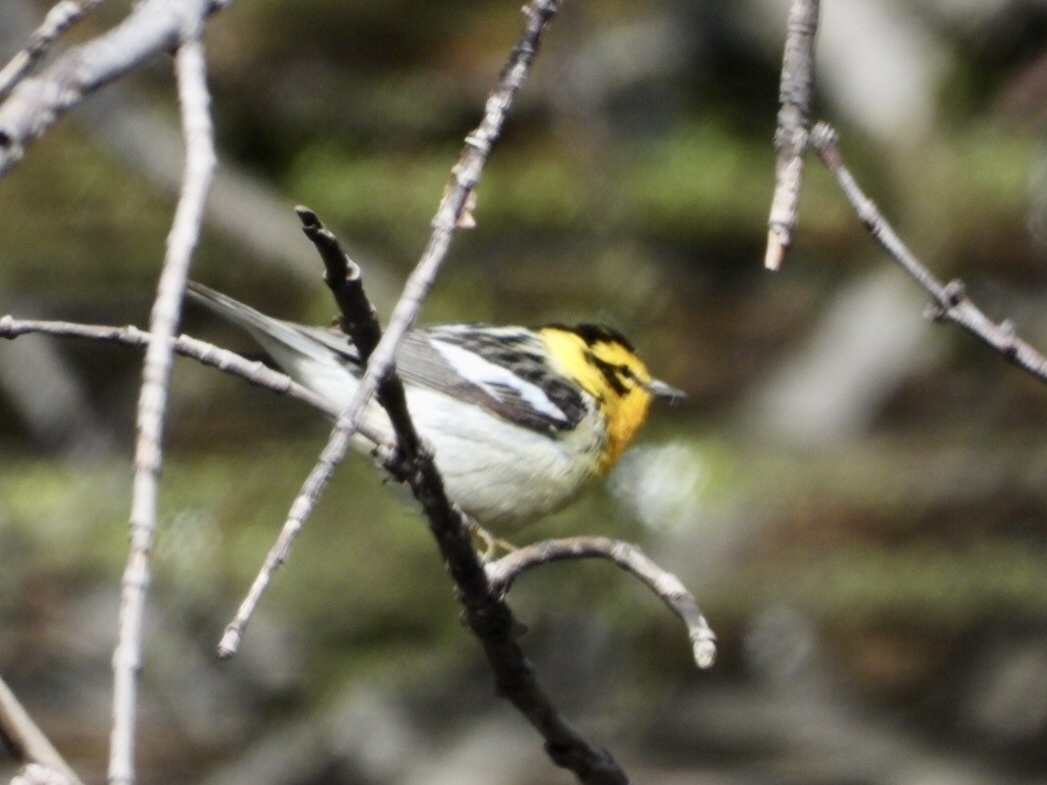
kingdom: Animalia
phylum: Chordata
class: Aves
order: Passeriformes
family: Parulidae
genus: Setophaga
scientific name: Setophaga fusca
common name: Blackburnian warbler
